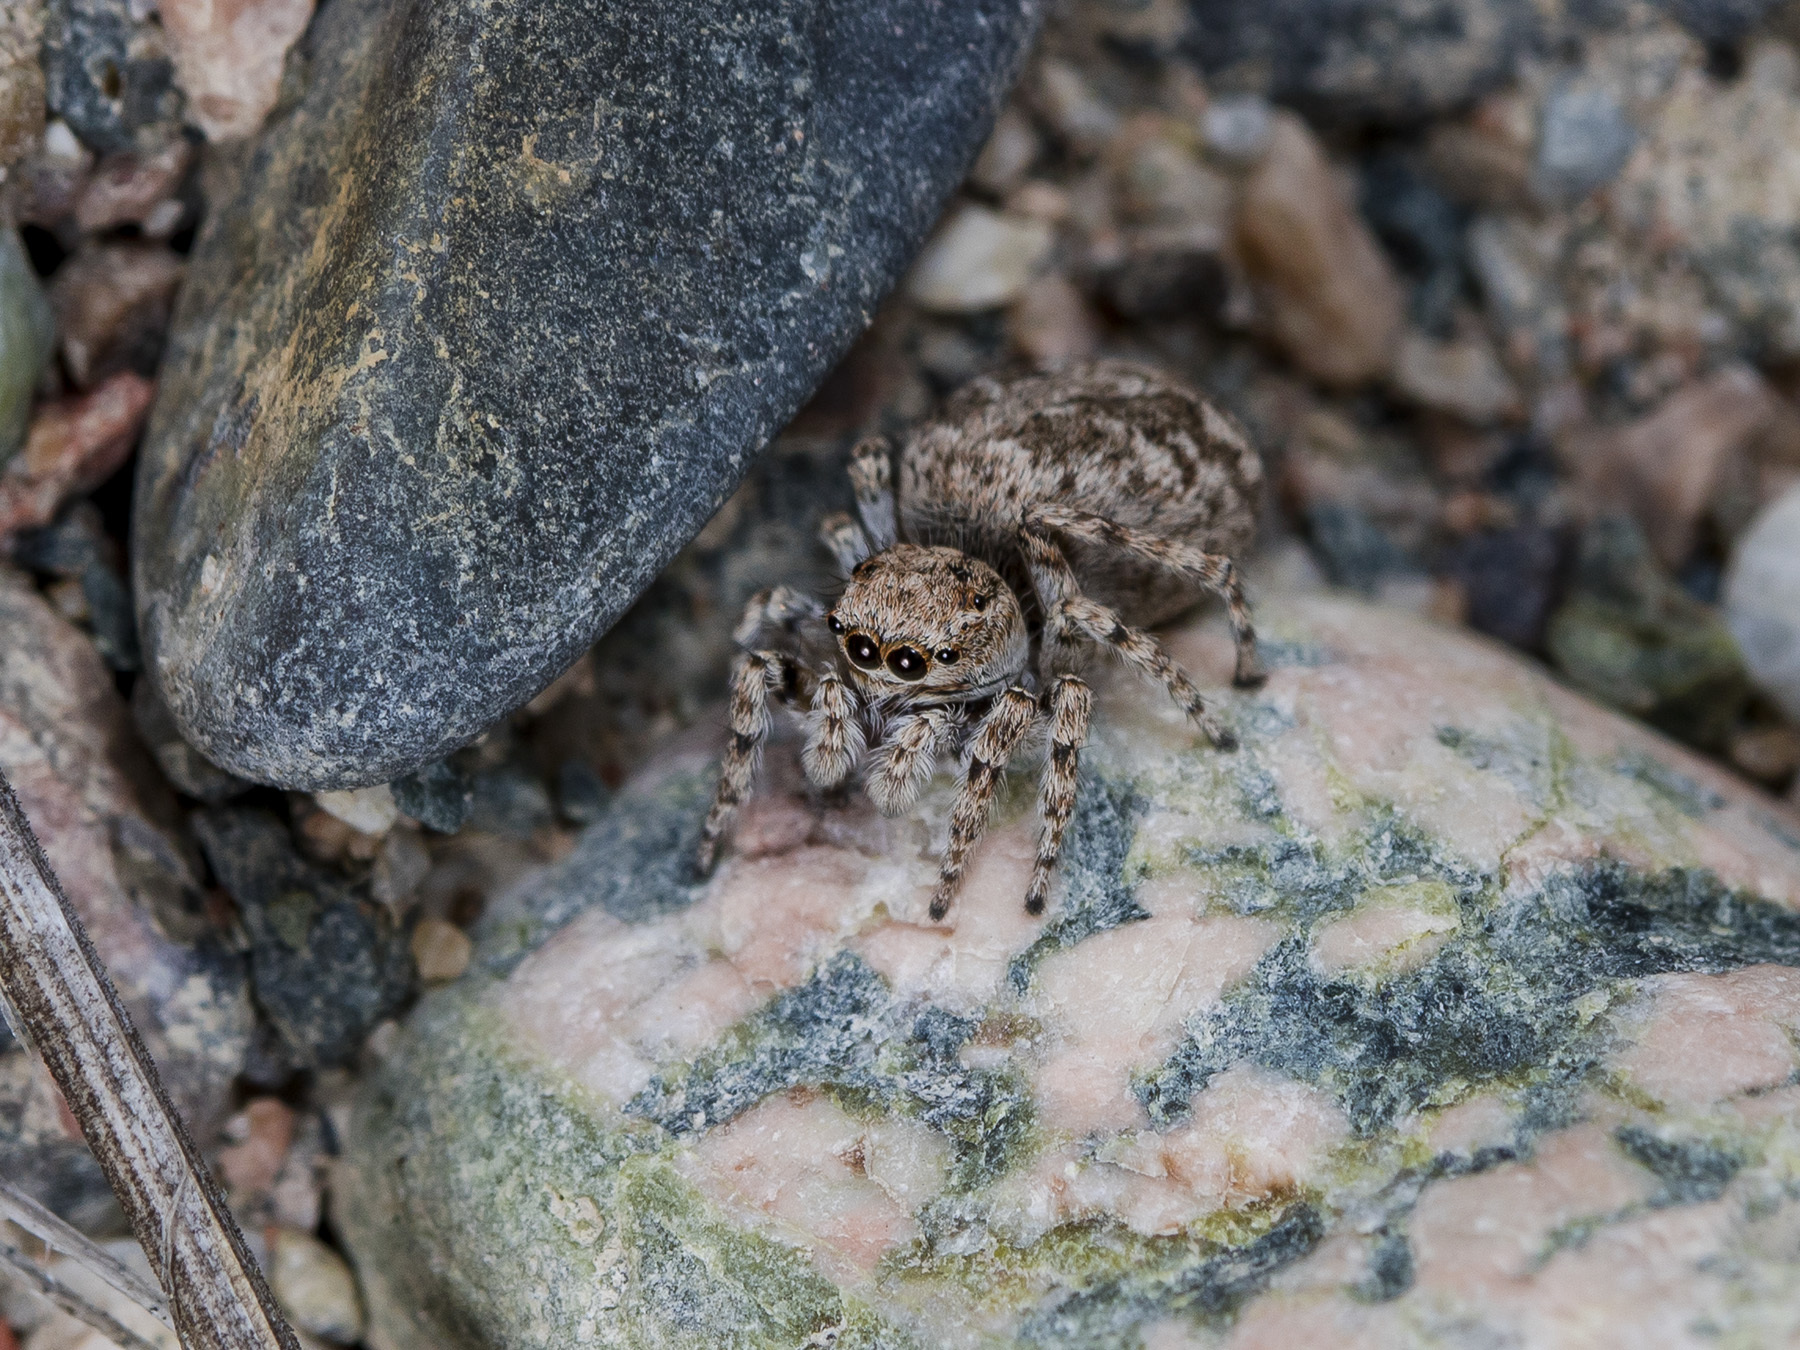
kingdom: Animalia
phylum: Arthropoda
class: Arachnida
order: Araneae
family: Salticidae
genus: Attulus
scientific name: Attulus avocator
